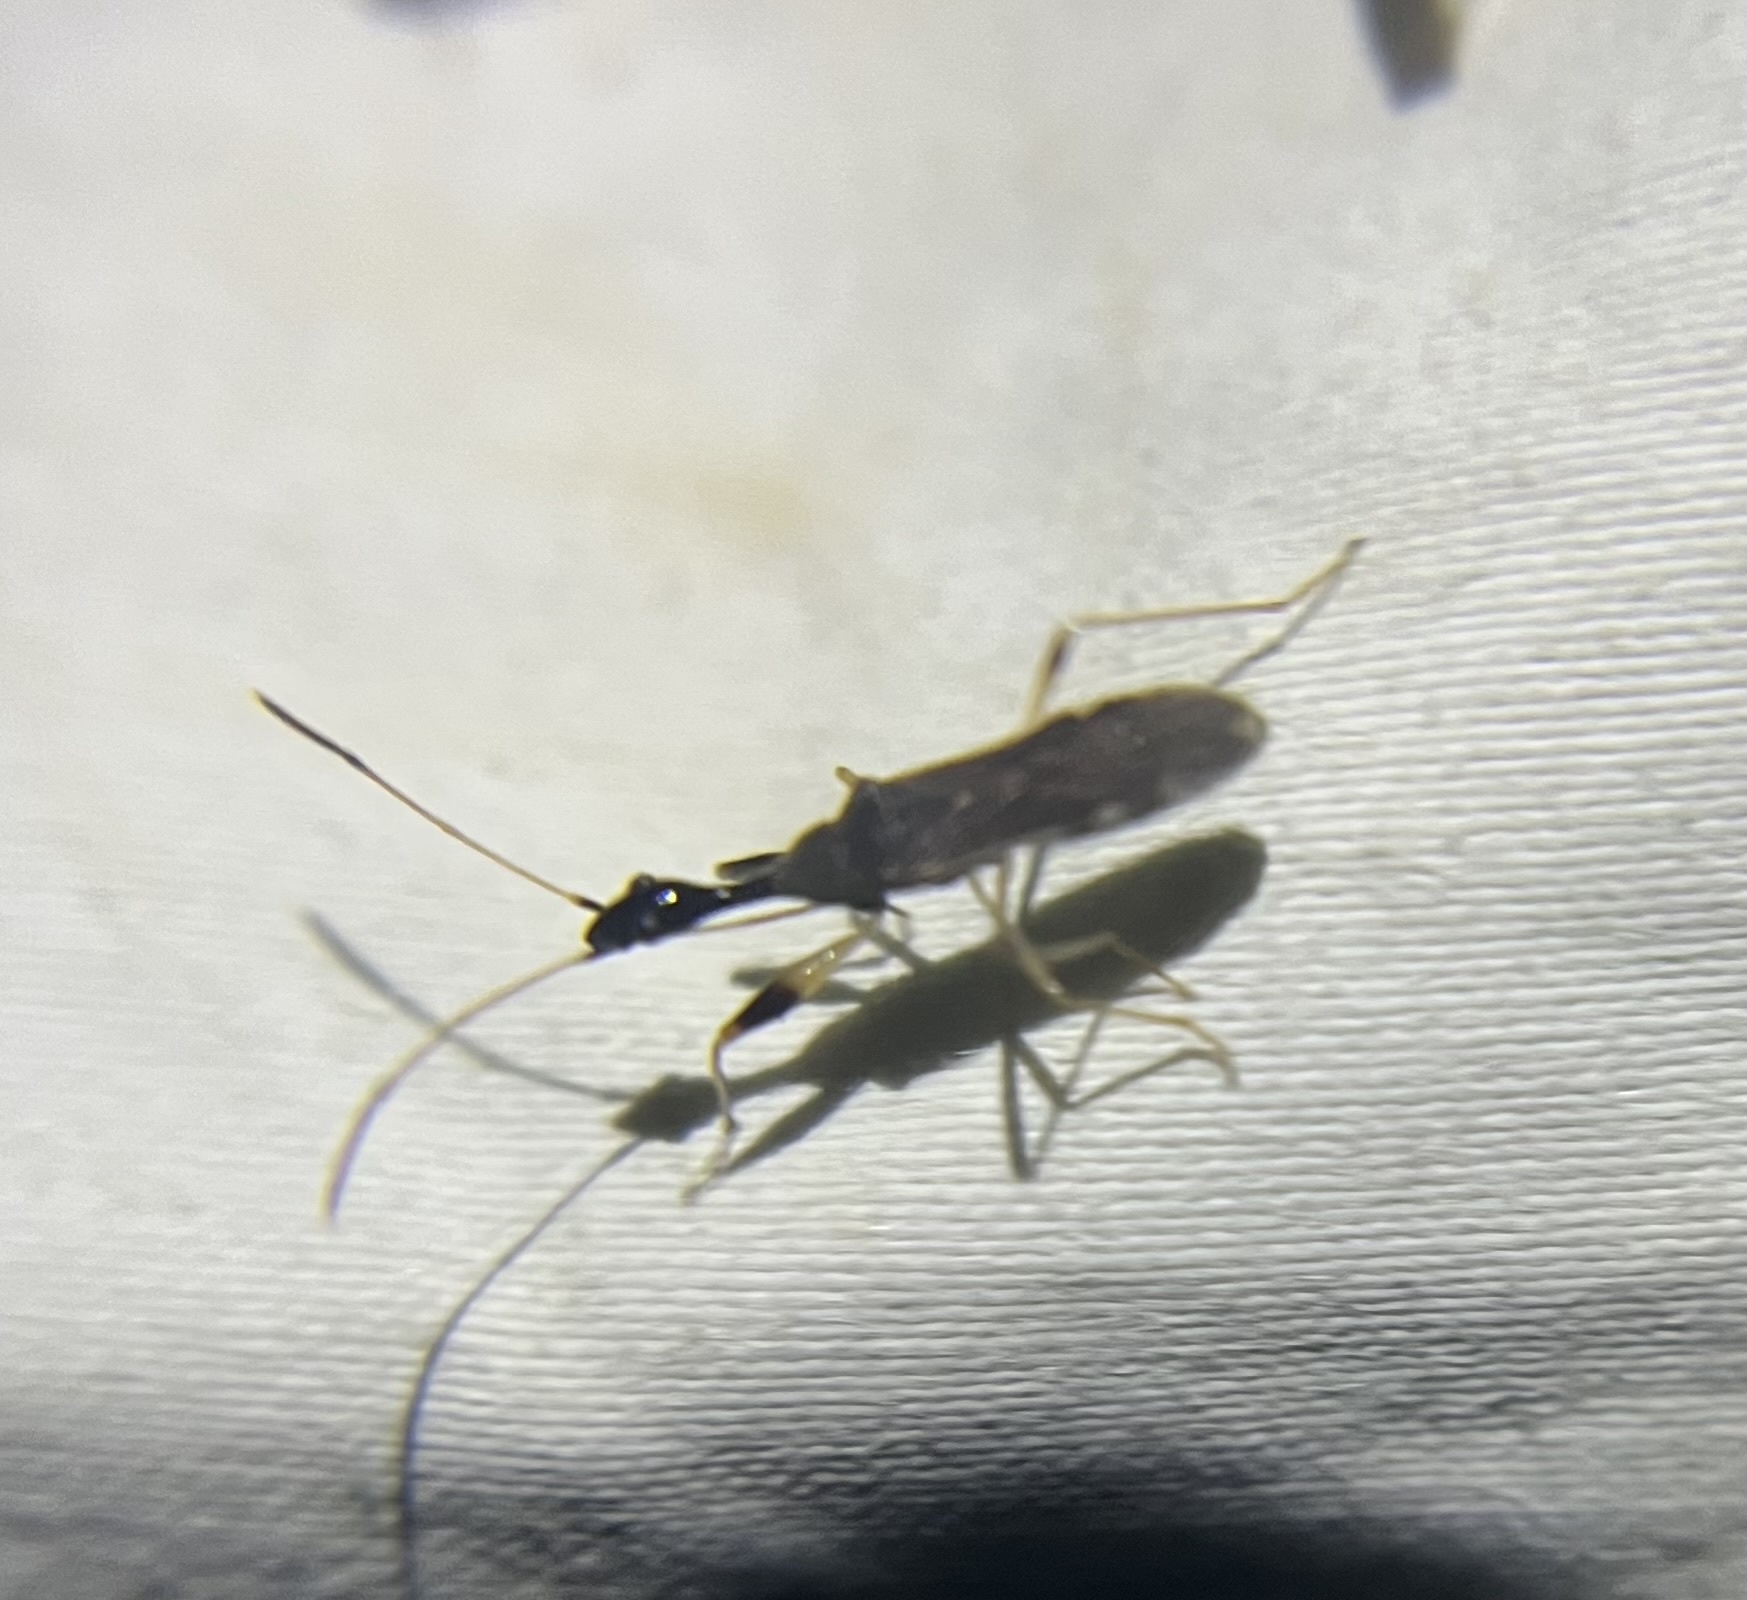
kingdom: Animalia
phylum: Arthropoda
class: Insecta
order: Hemiptera
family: Rhyparochromidae
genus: Myodocha
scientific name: Myodocha serripes
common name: Long-necked seed bug
